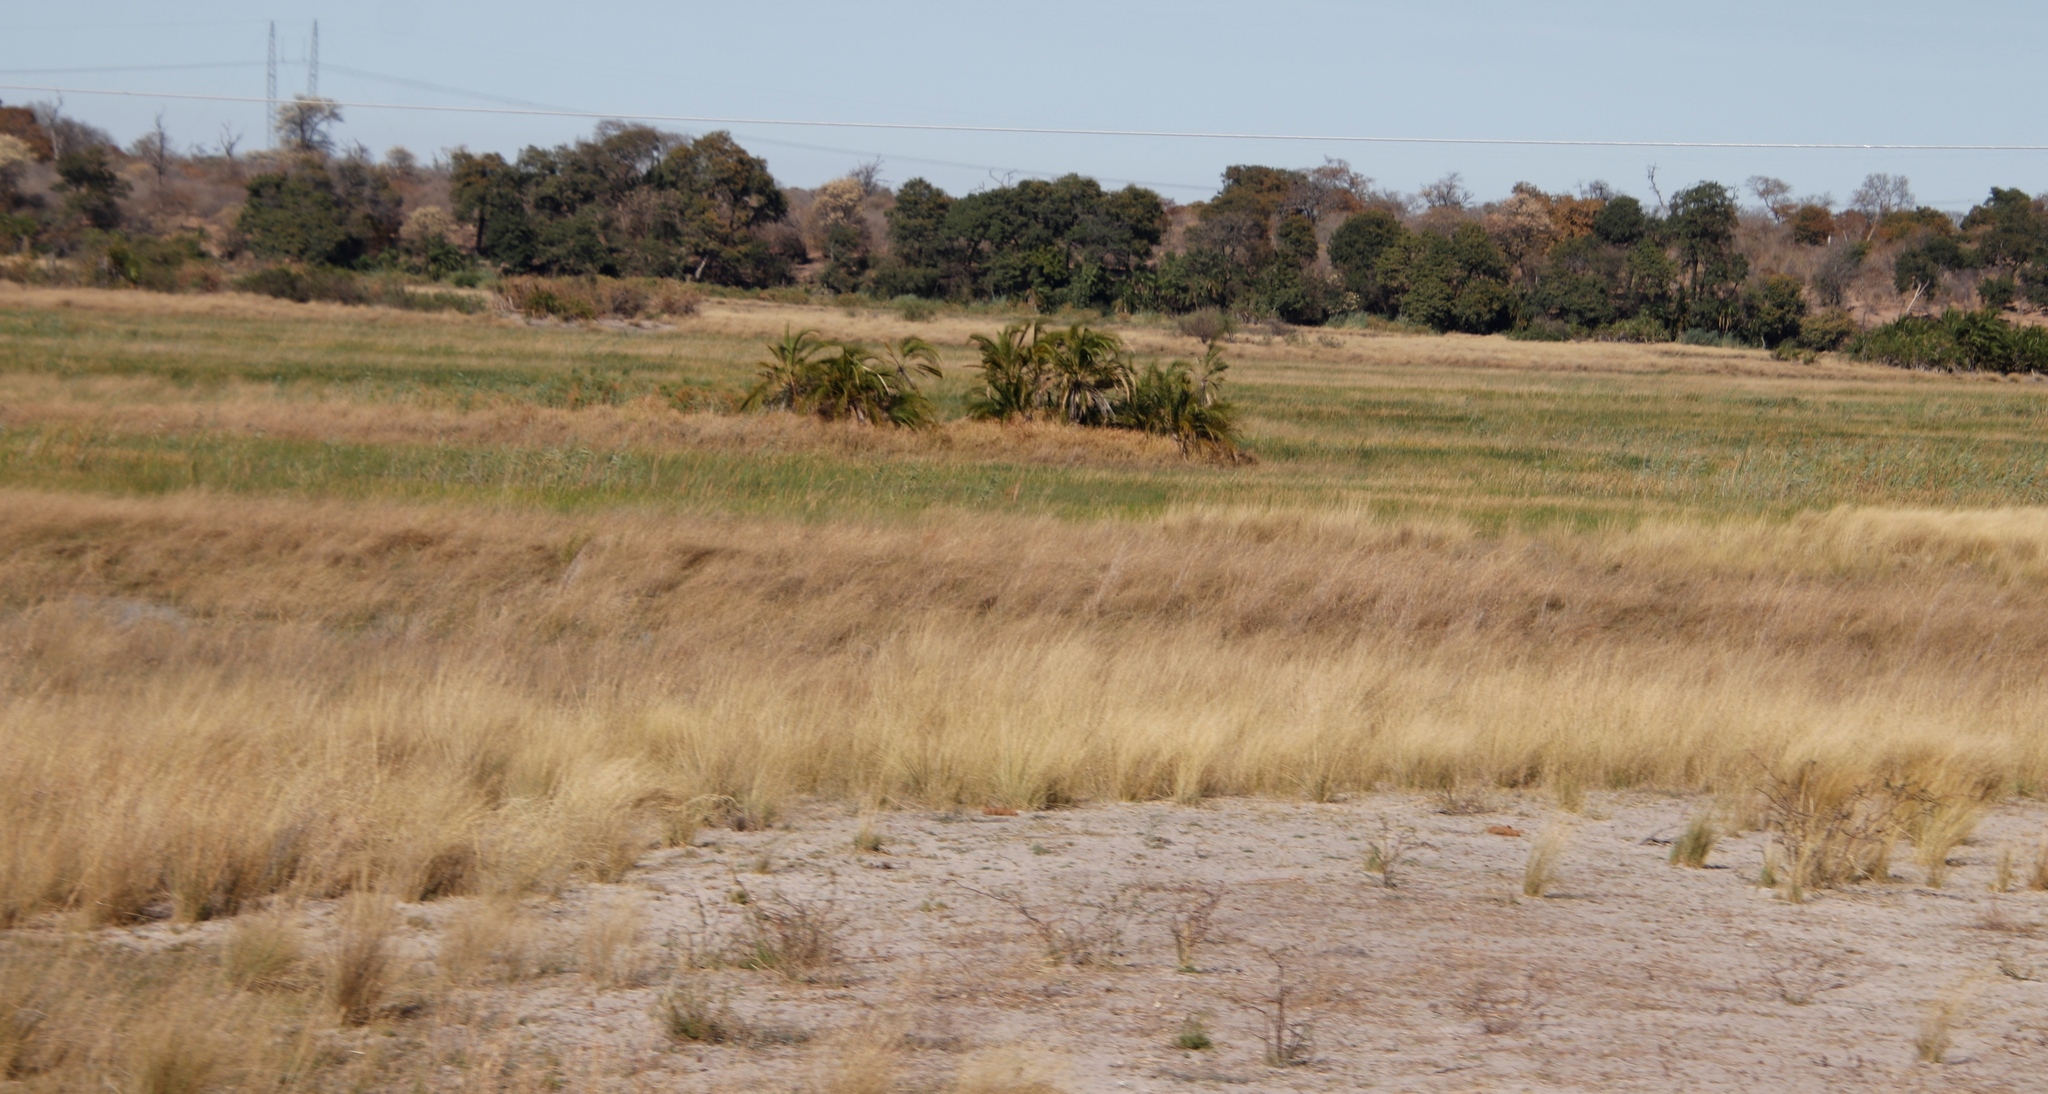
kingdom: Plantae
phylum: Tracheophyta
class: Liliopsida
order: Arecales
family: Arecaceae
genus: Phoenix
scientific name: Phoenix reclinata
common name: Senegal date palm
